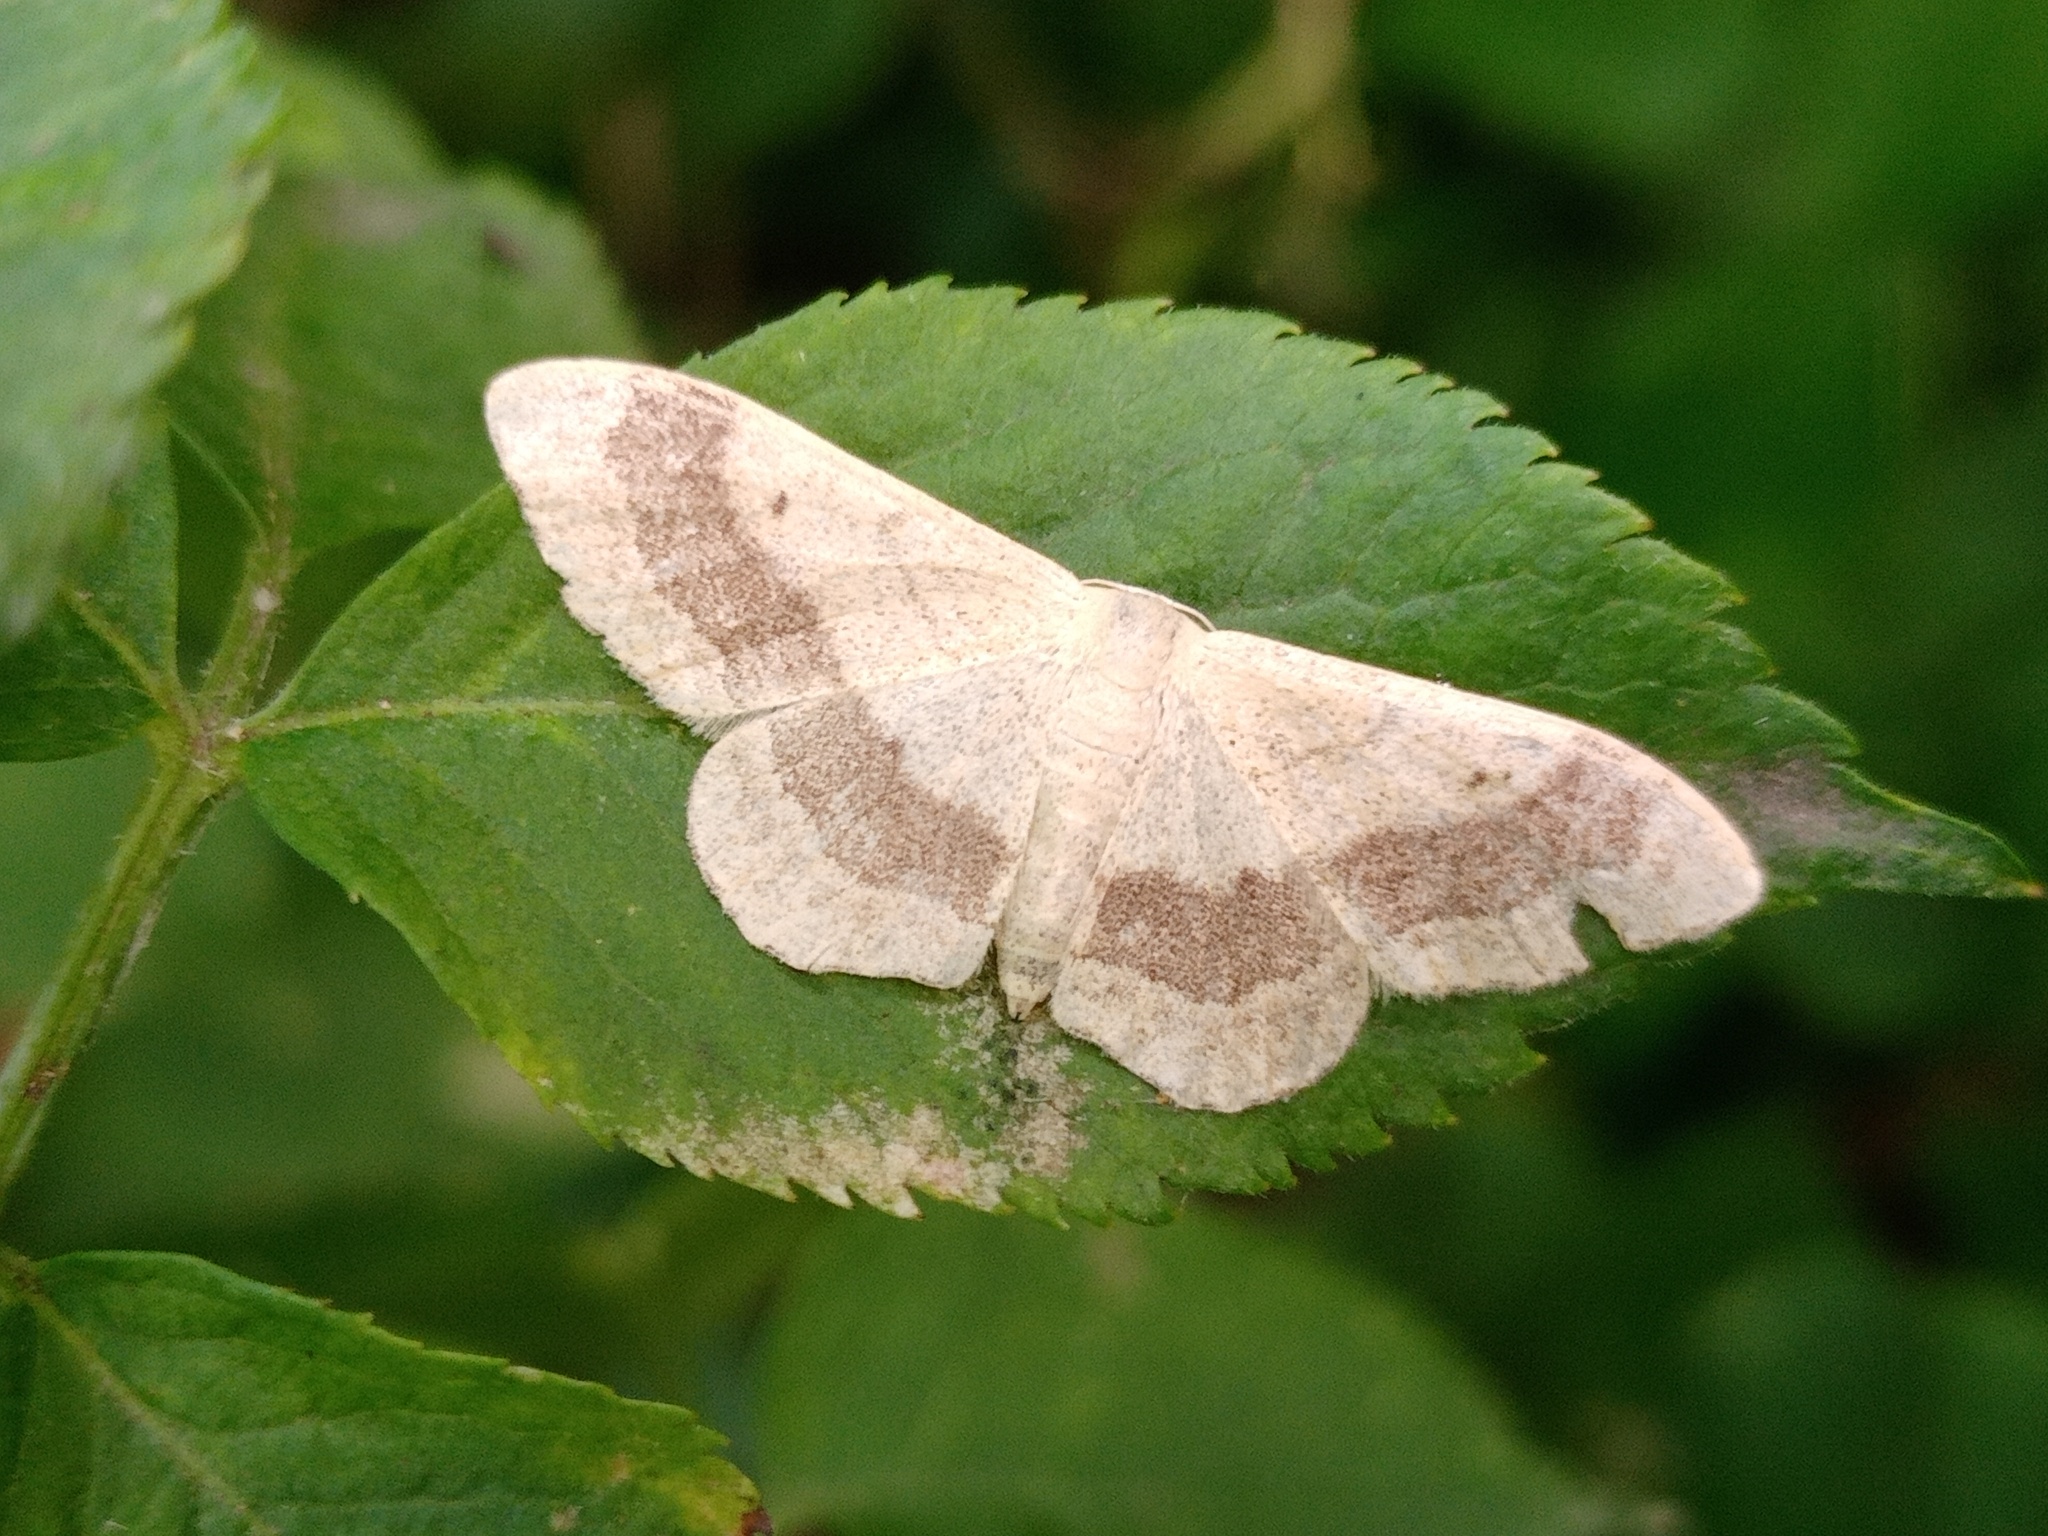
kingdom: Animalia
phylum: Arthropoda
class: Insecta
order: Lepidoptera
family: Geometridae
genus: Idaea
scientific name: Idaea aversata
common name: Riband wave
